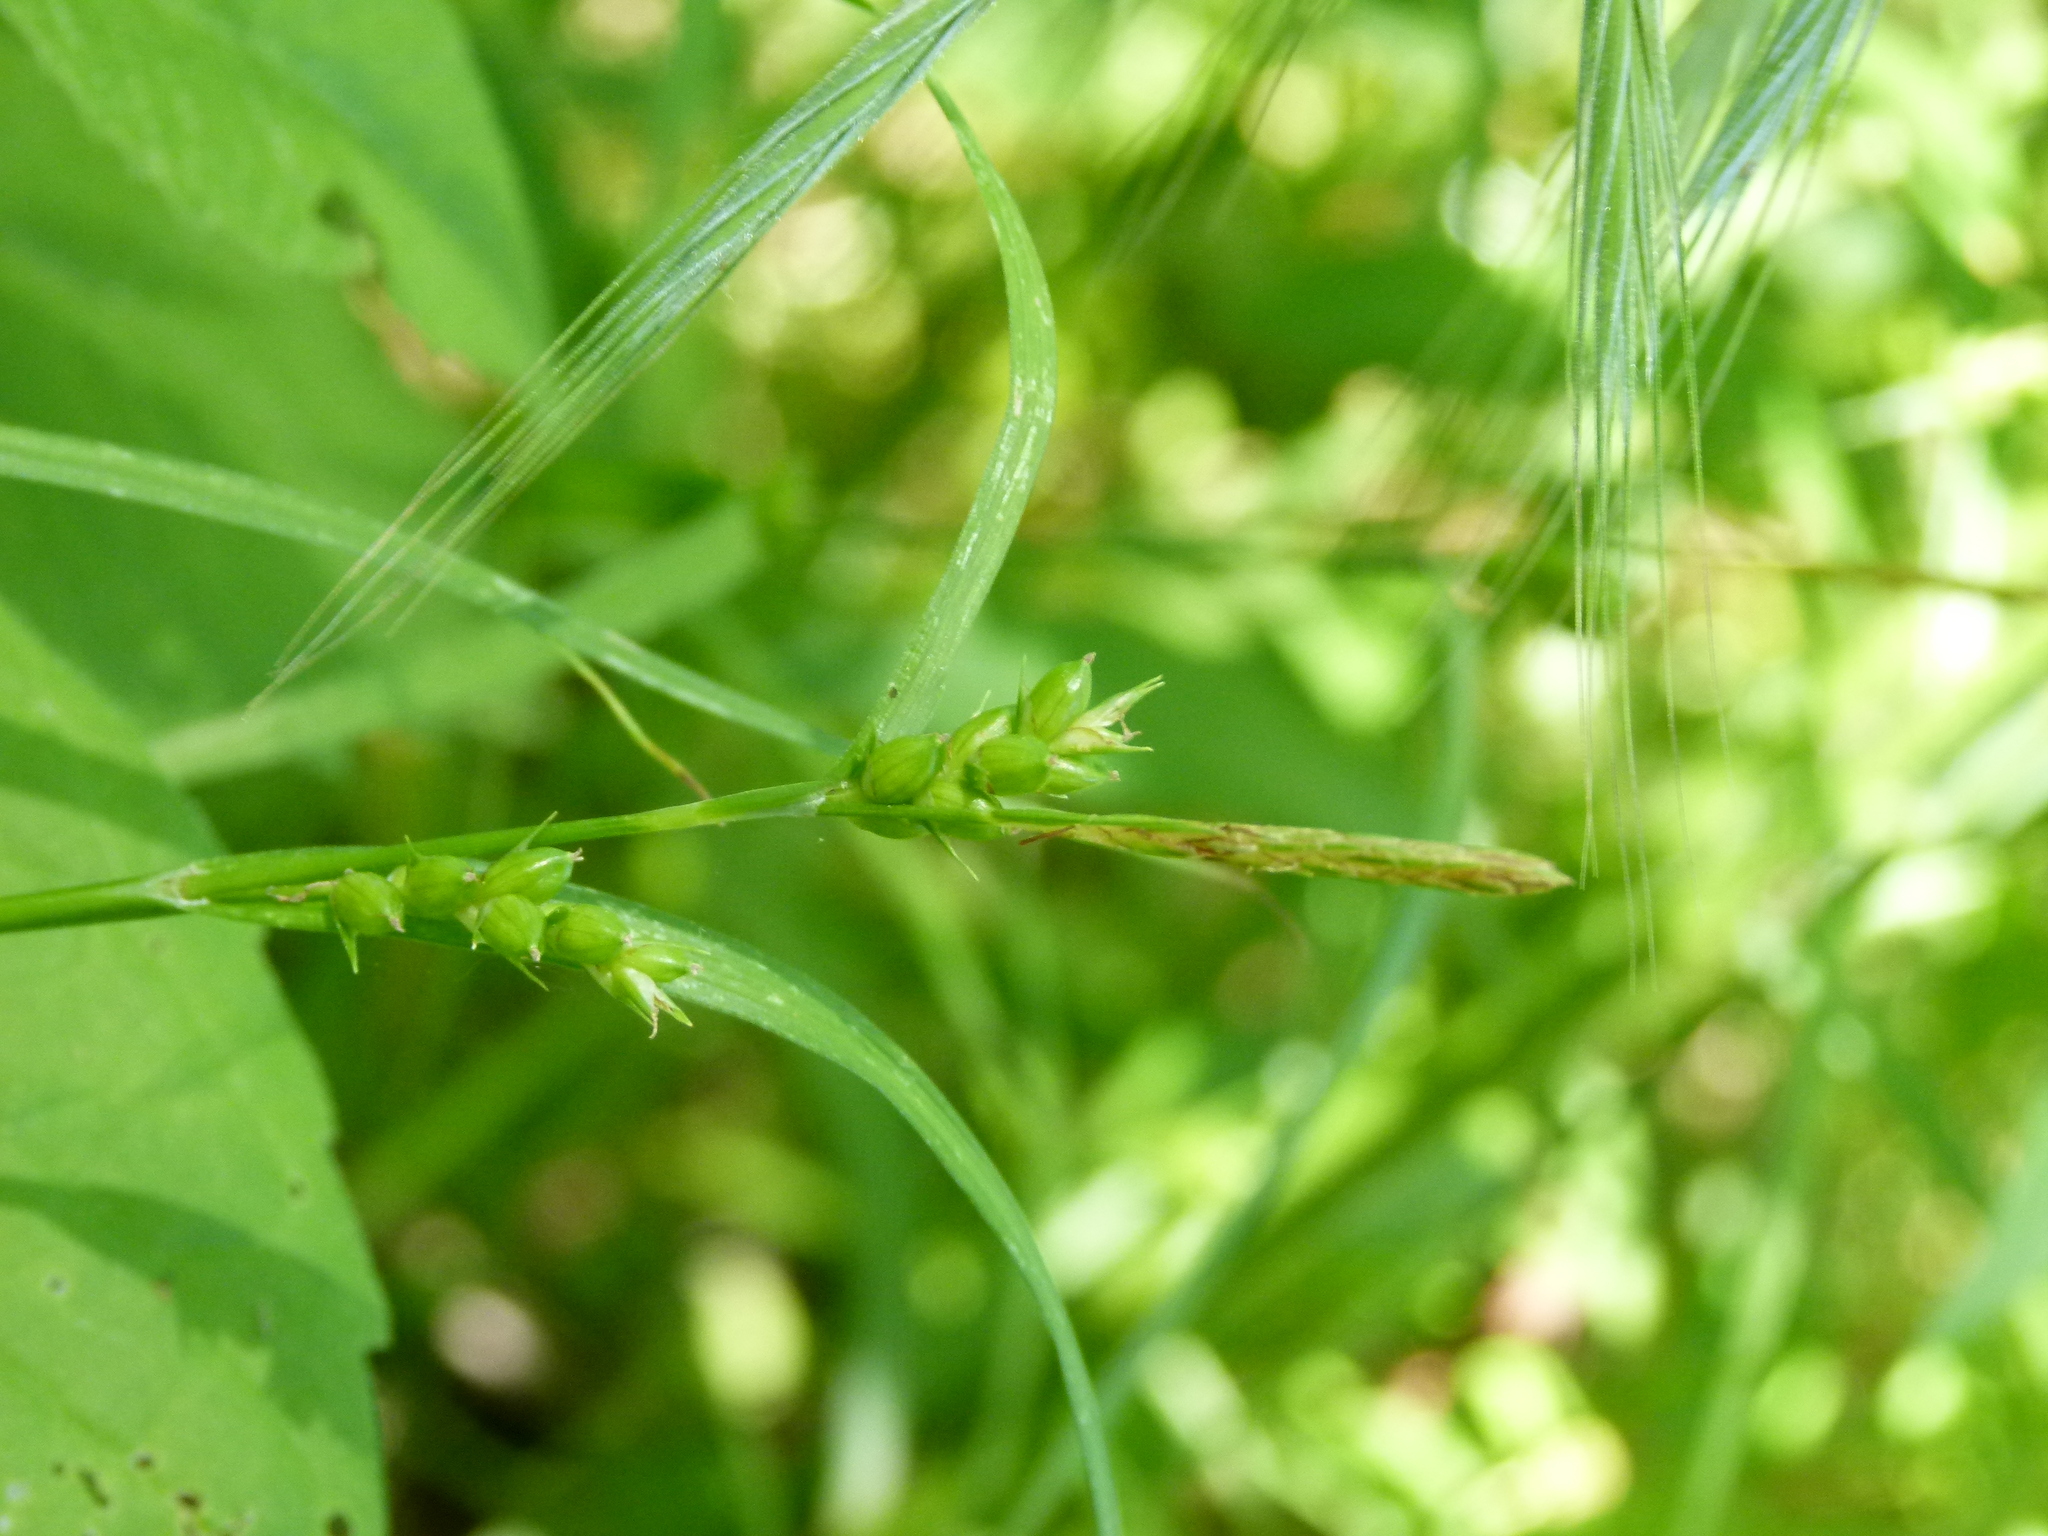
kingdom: Plantae
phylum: Tracheophyta
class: Liliopsida
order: Poales
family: Cyperaceae
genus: Carex
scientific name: Carex amphibola
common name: Amphibious sedge
